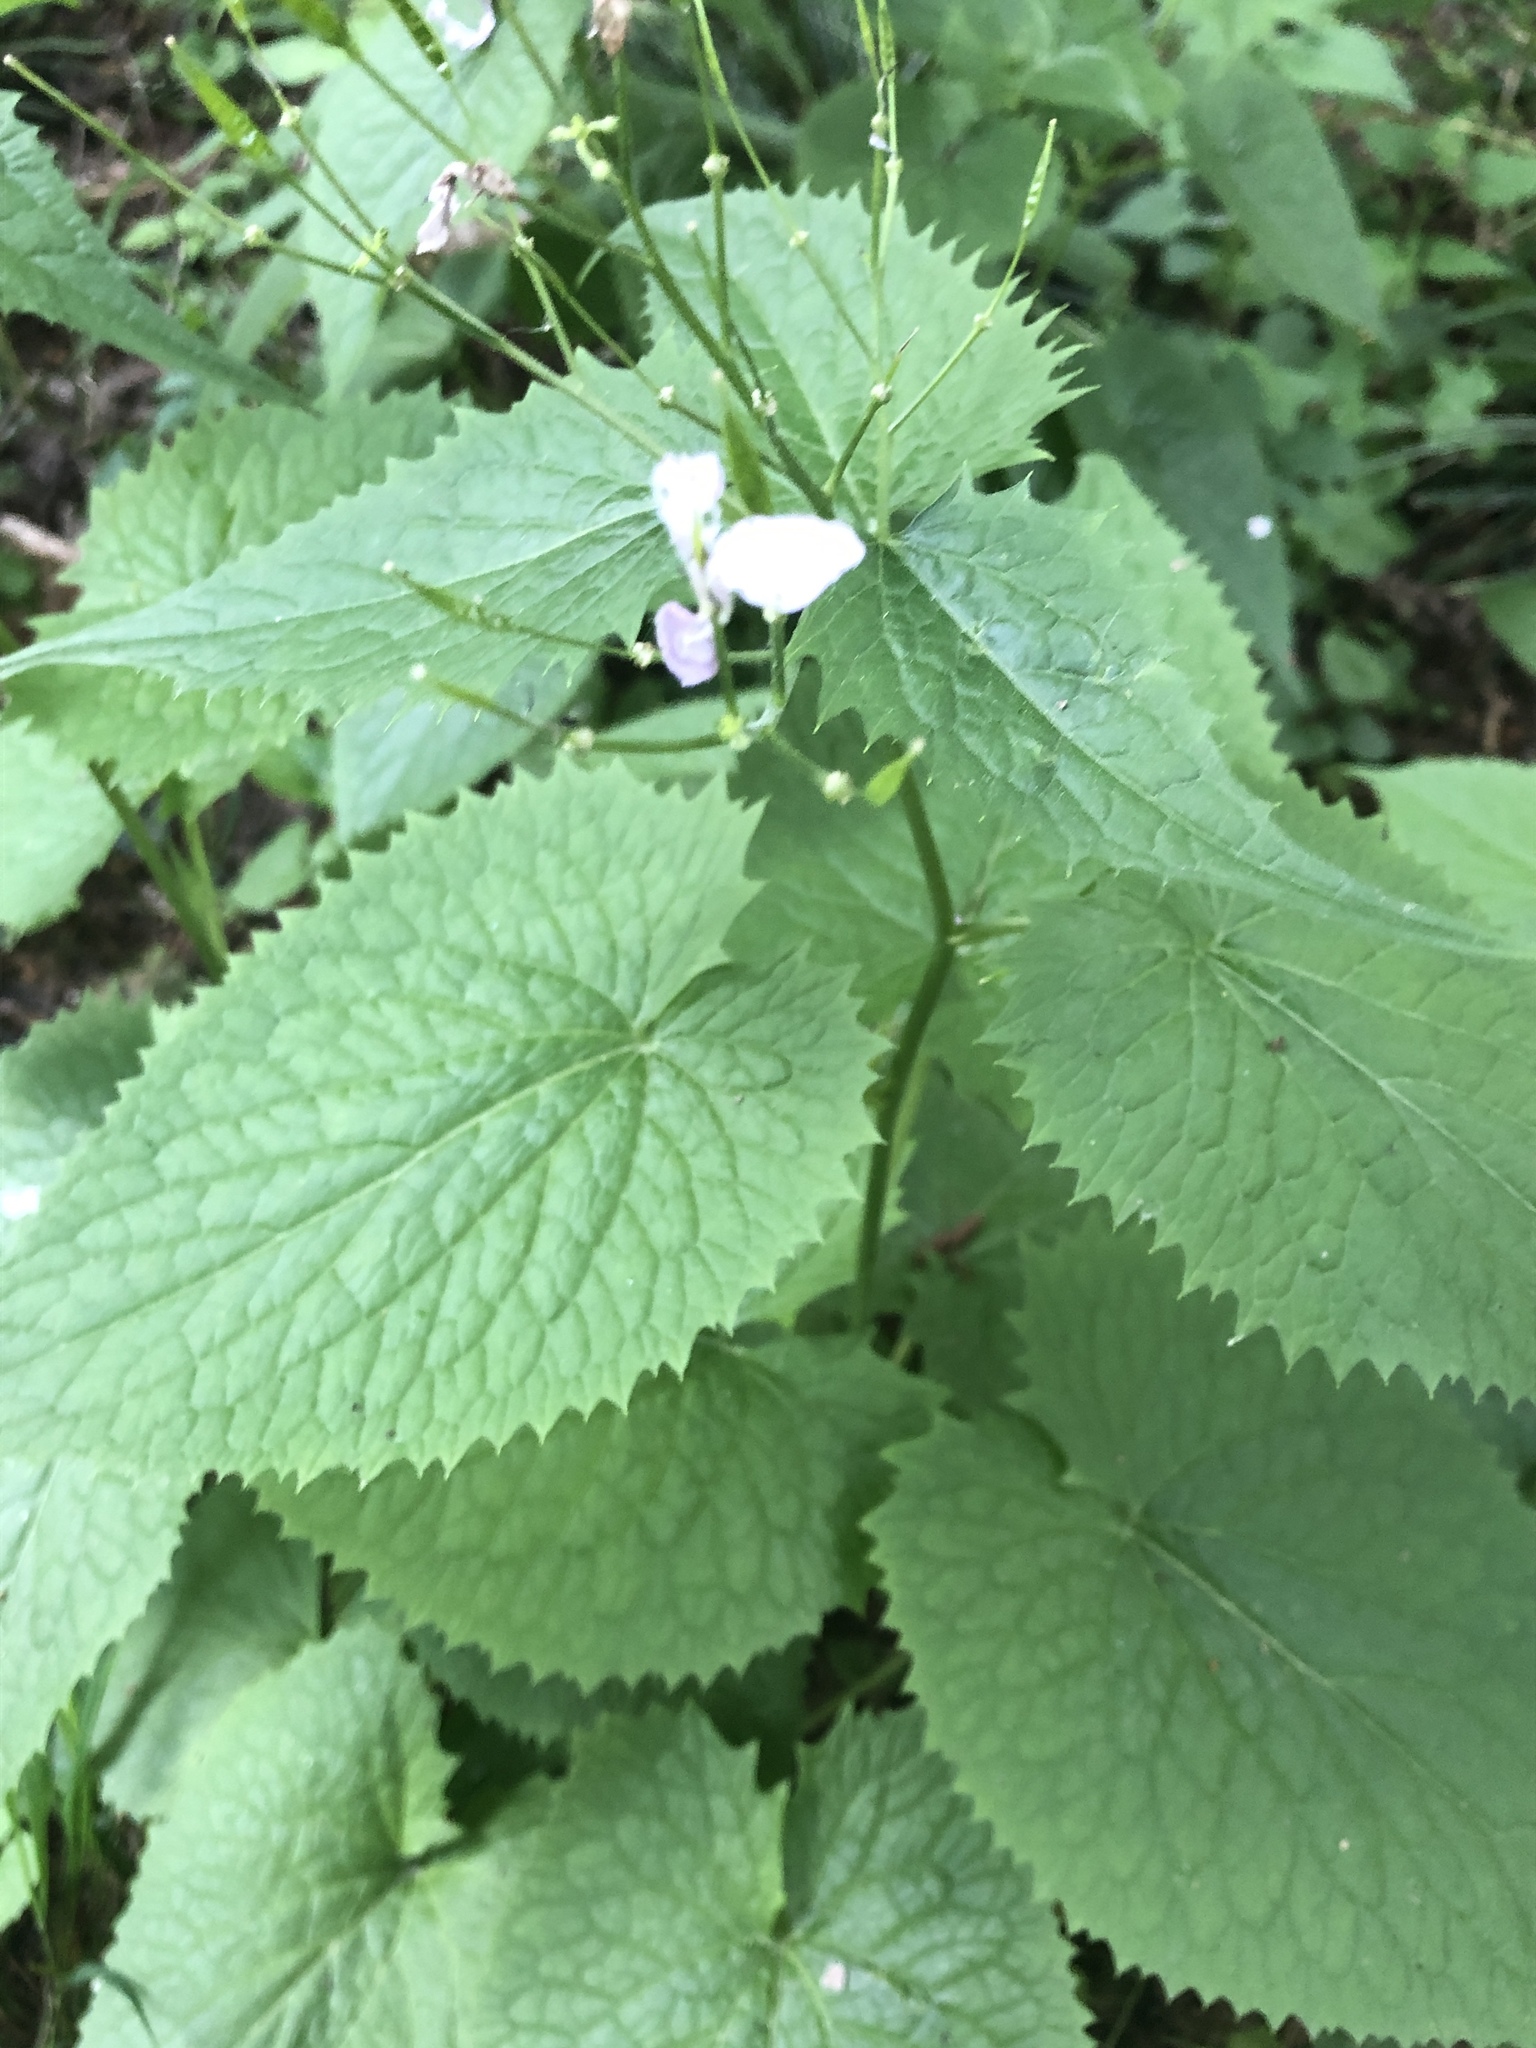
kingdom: Plantae
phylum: Tracheophyta
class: Magnoliopsida
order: Brassicales
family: Brassicaceae
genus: Lunaria
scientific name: Lunaria rediviva
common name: Perennial honesty
